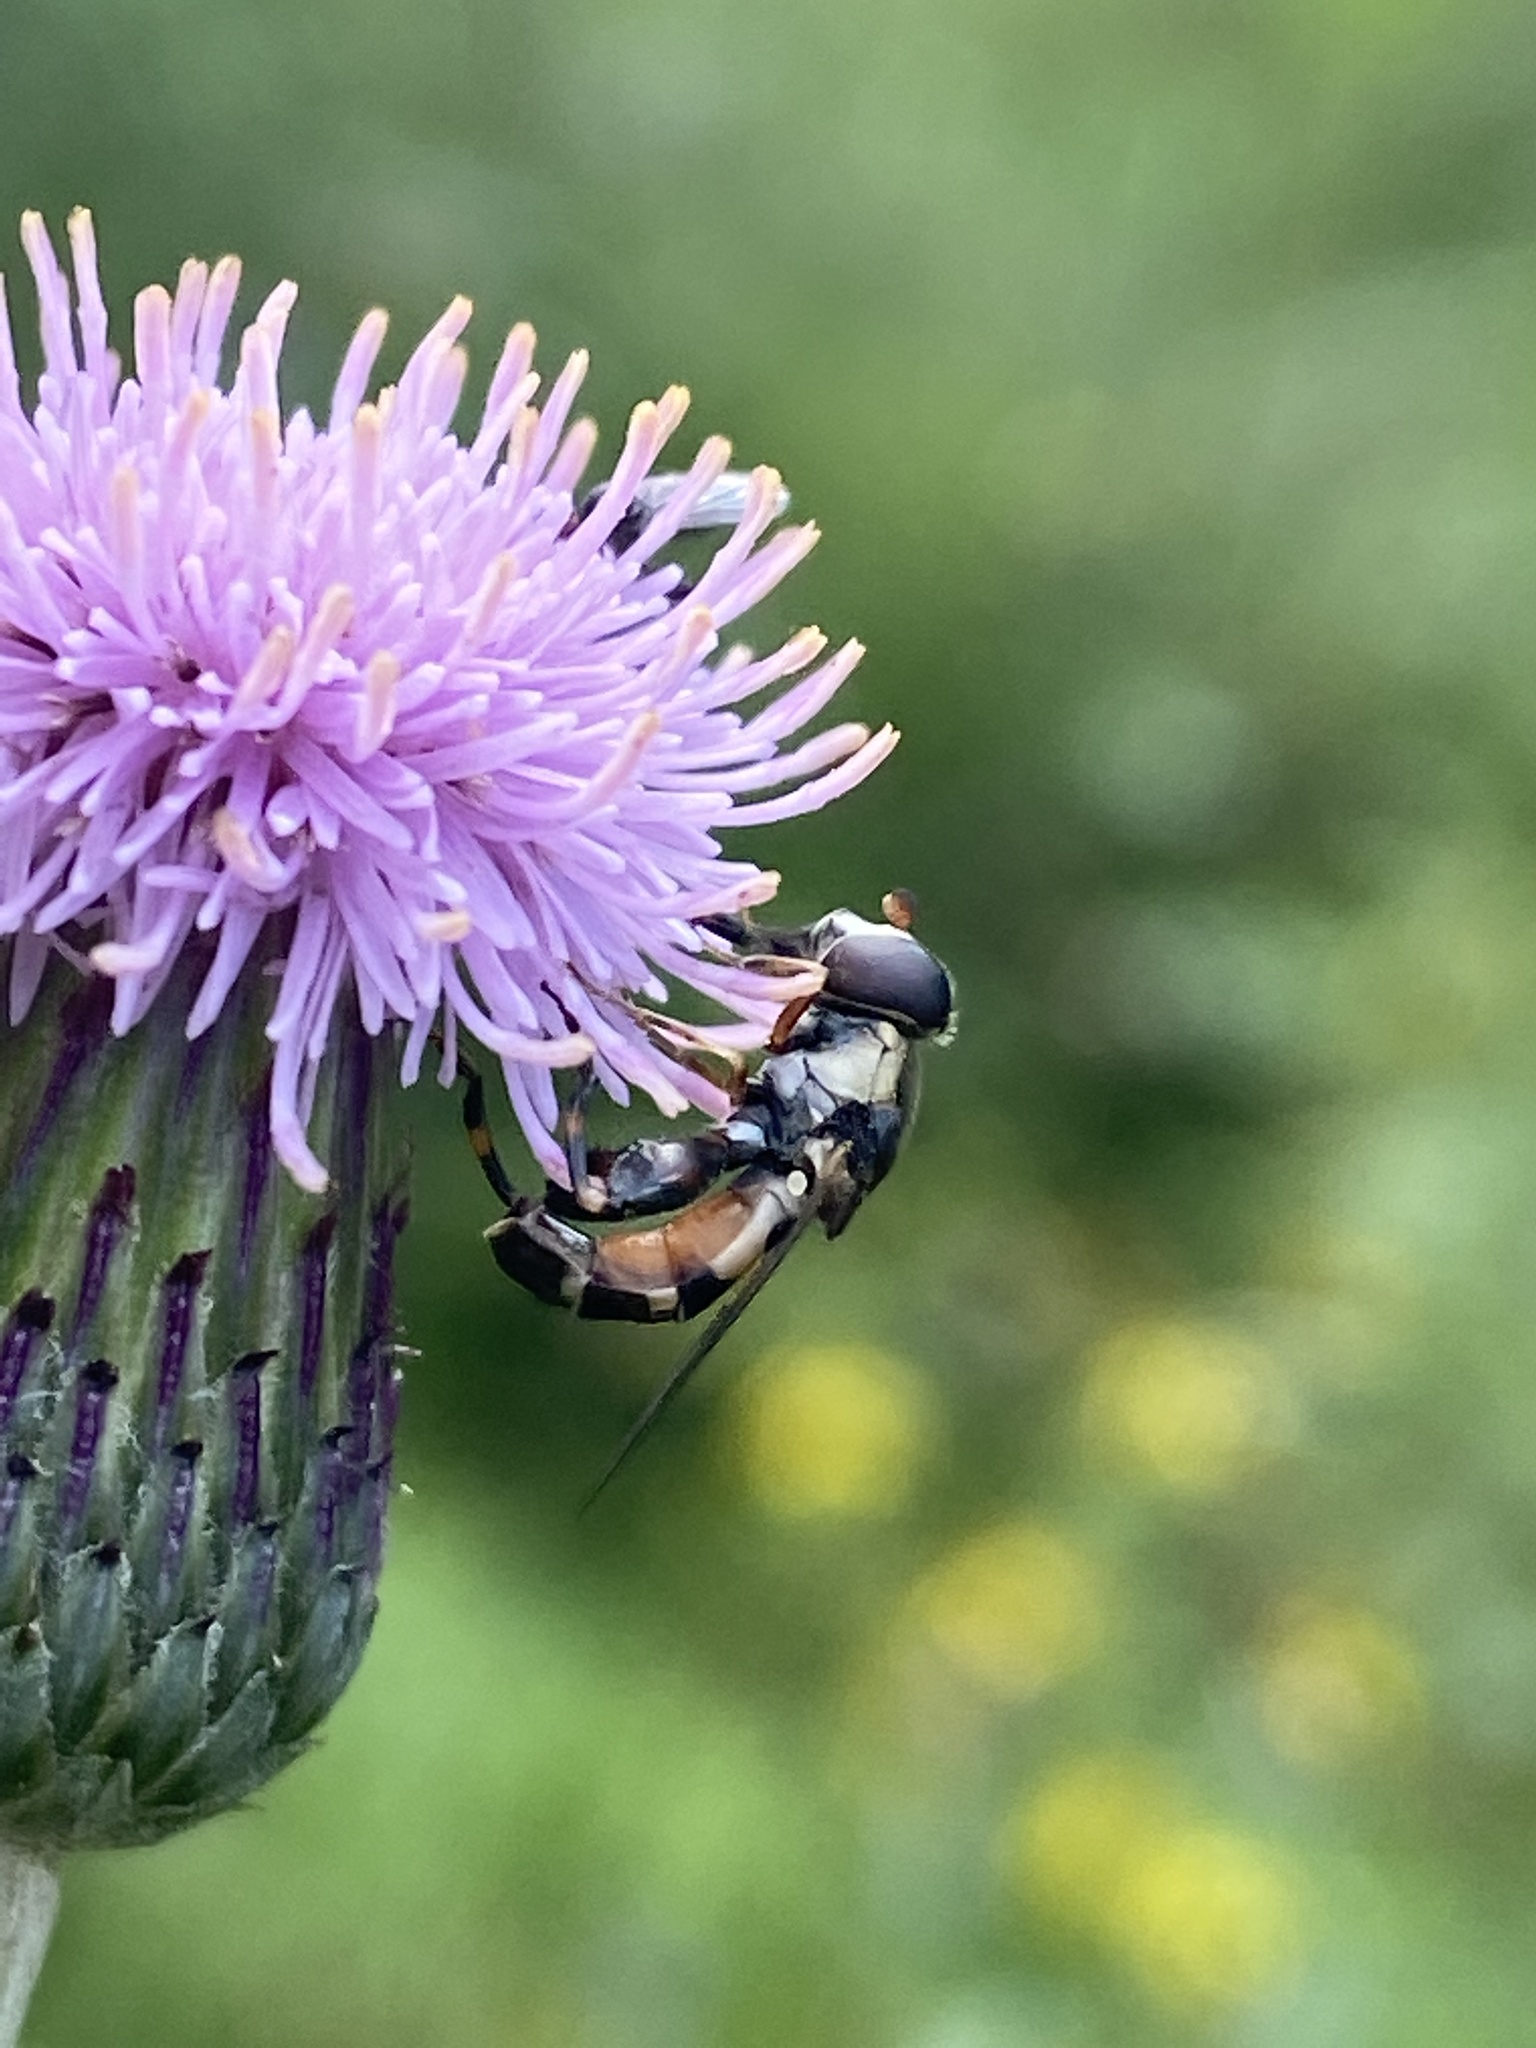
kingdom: Animalia
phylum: Arthropoda
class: Insecta
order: Diptera
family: Syrphidae
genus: Syritta
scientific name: Syritta pipiens
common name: Hover fly
